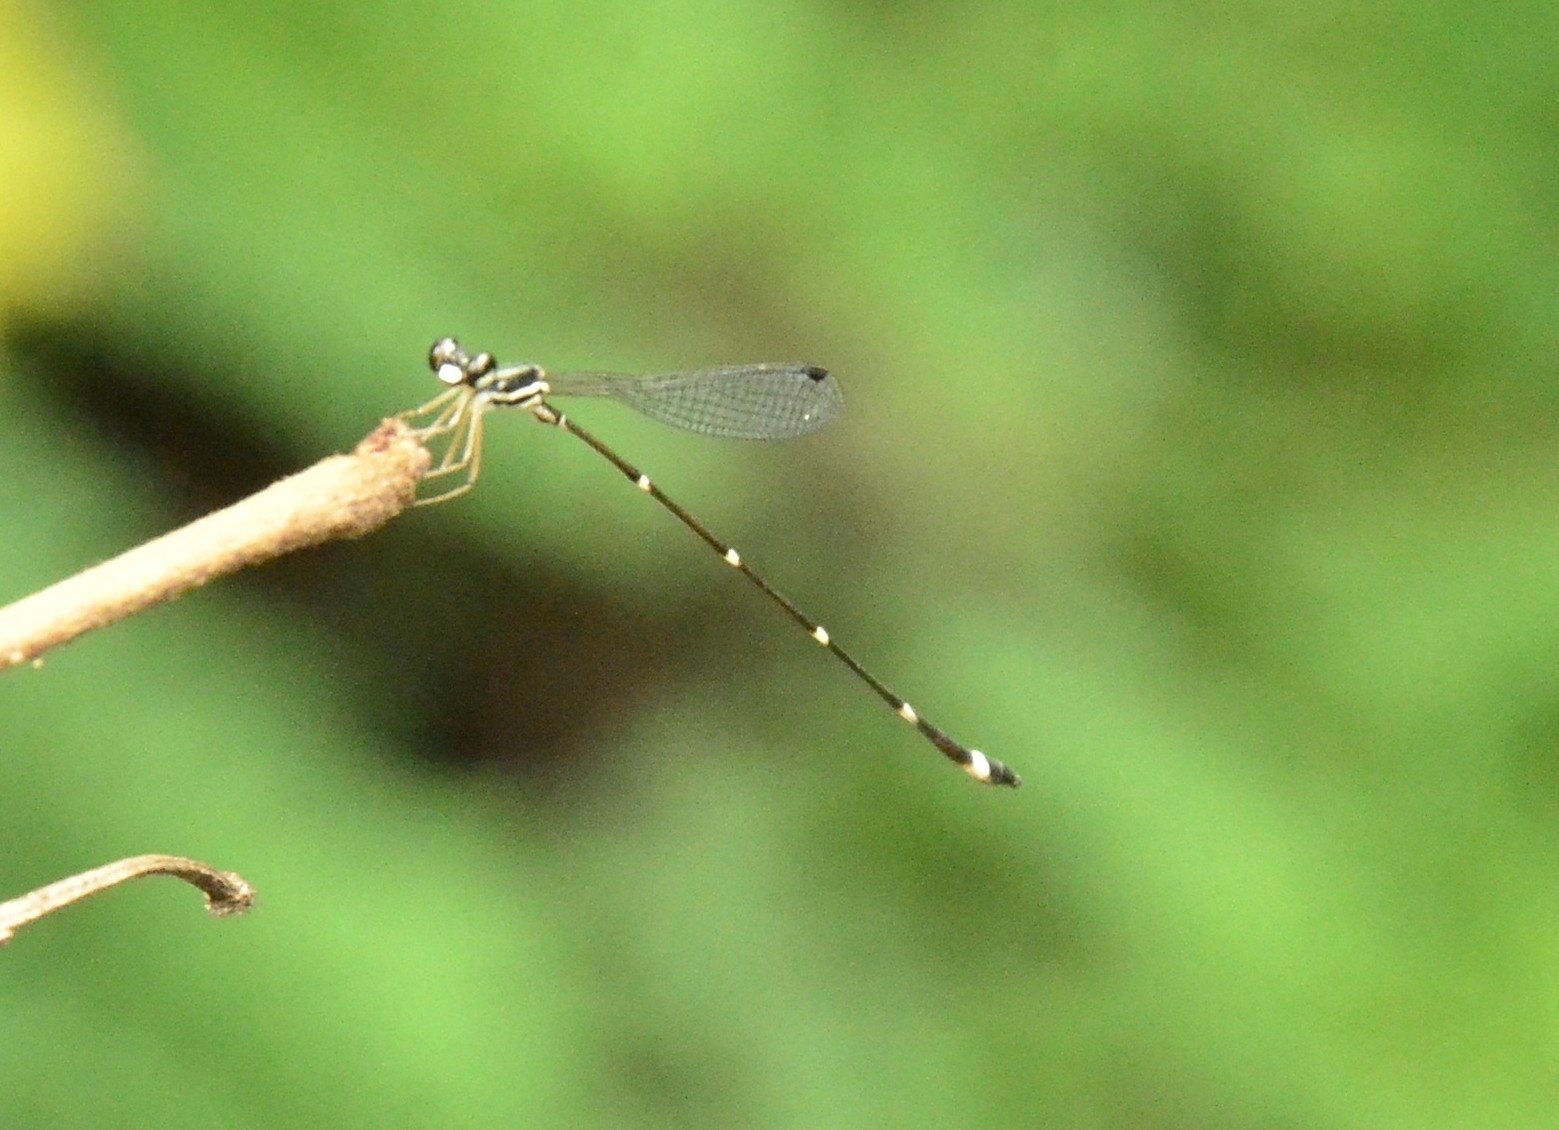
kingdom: Animalia
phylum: Arthropoda
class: Insecta
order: Odonata
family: Platystictidae
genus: Protosticta
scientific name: Protosticta gravelyi
